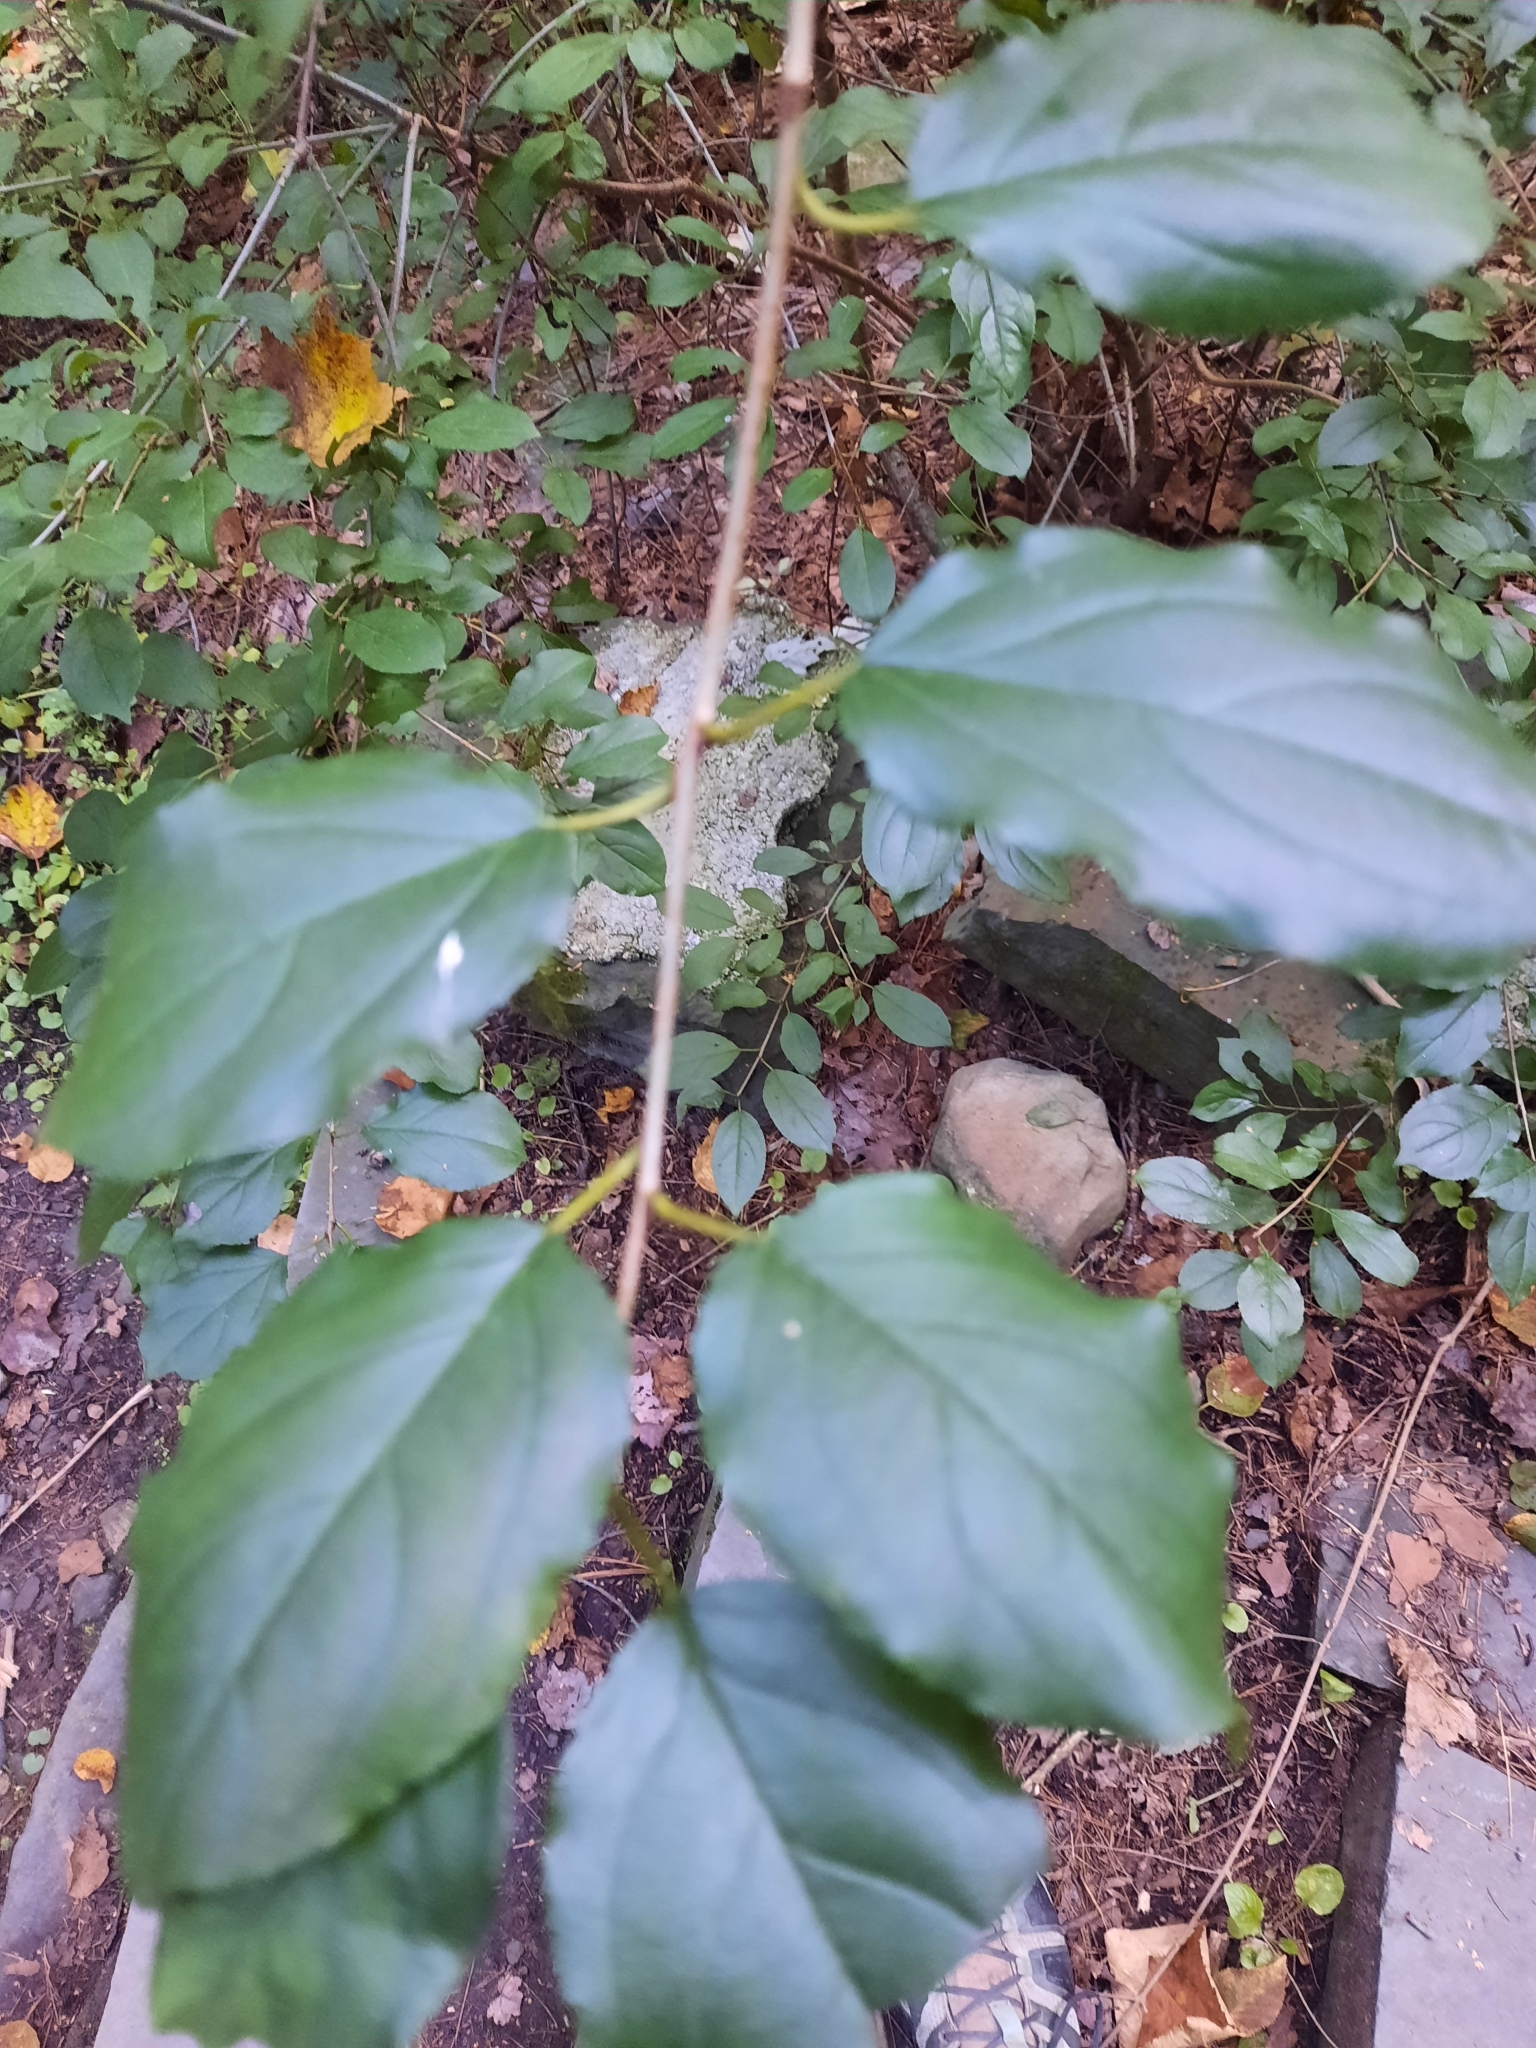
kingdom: Plantae
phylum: Tracheophyta
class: Magnoliopsida
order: Rosales
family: Rhamnaceae
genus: Rhamnus
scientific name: Rhamnus cathartica
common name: Common buckthorn
